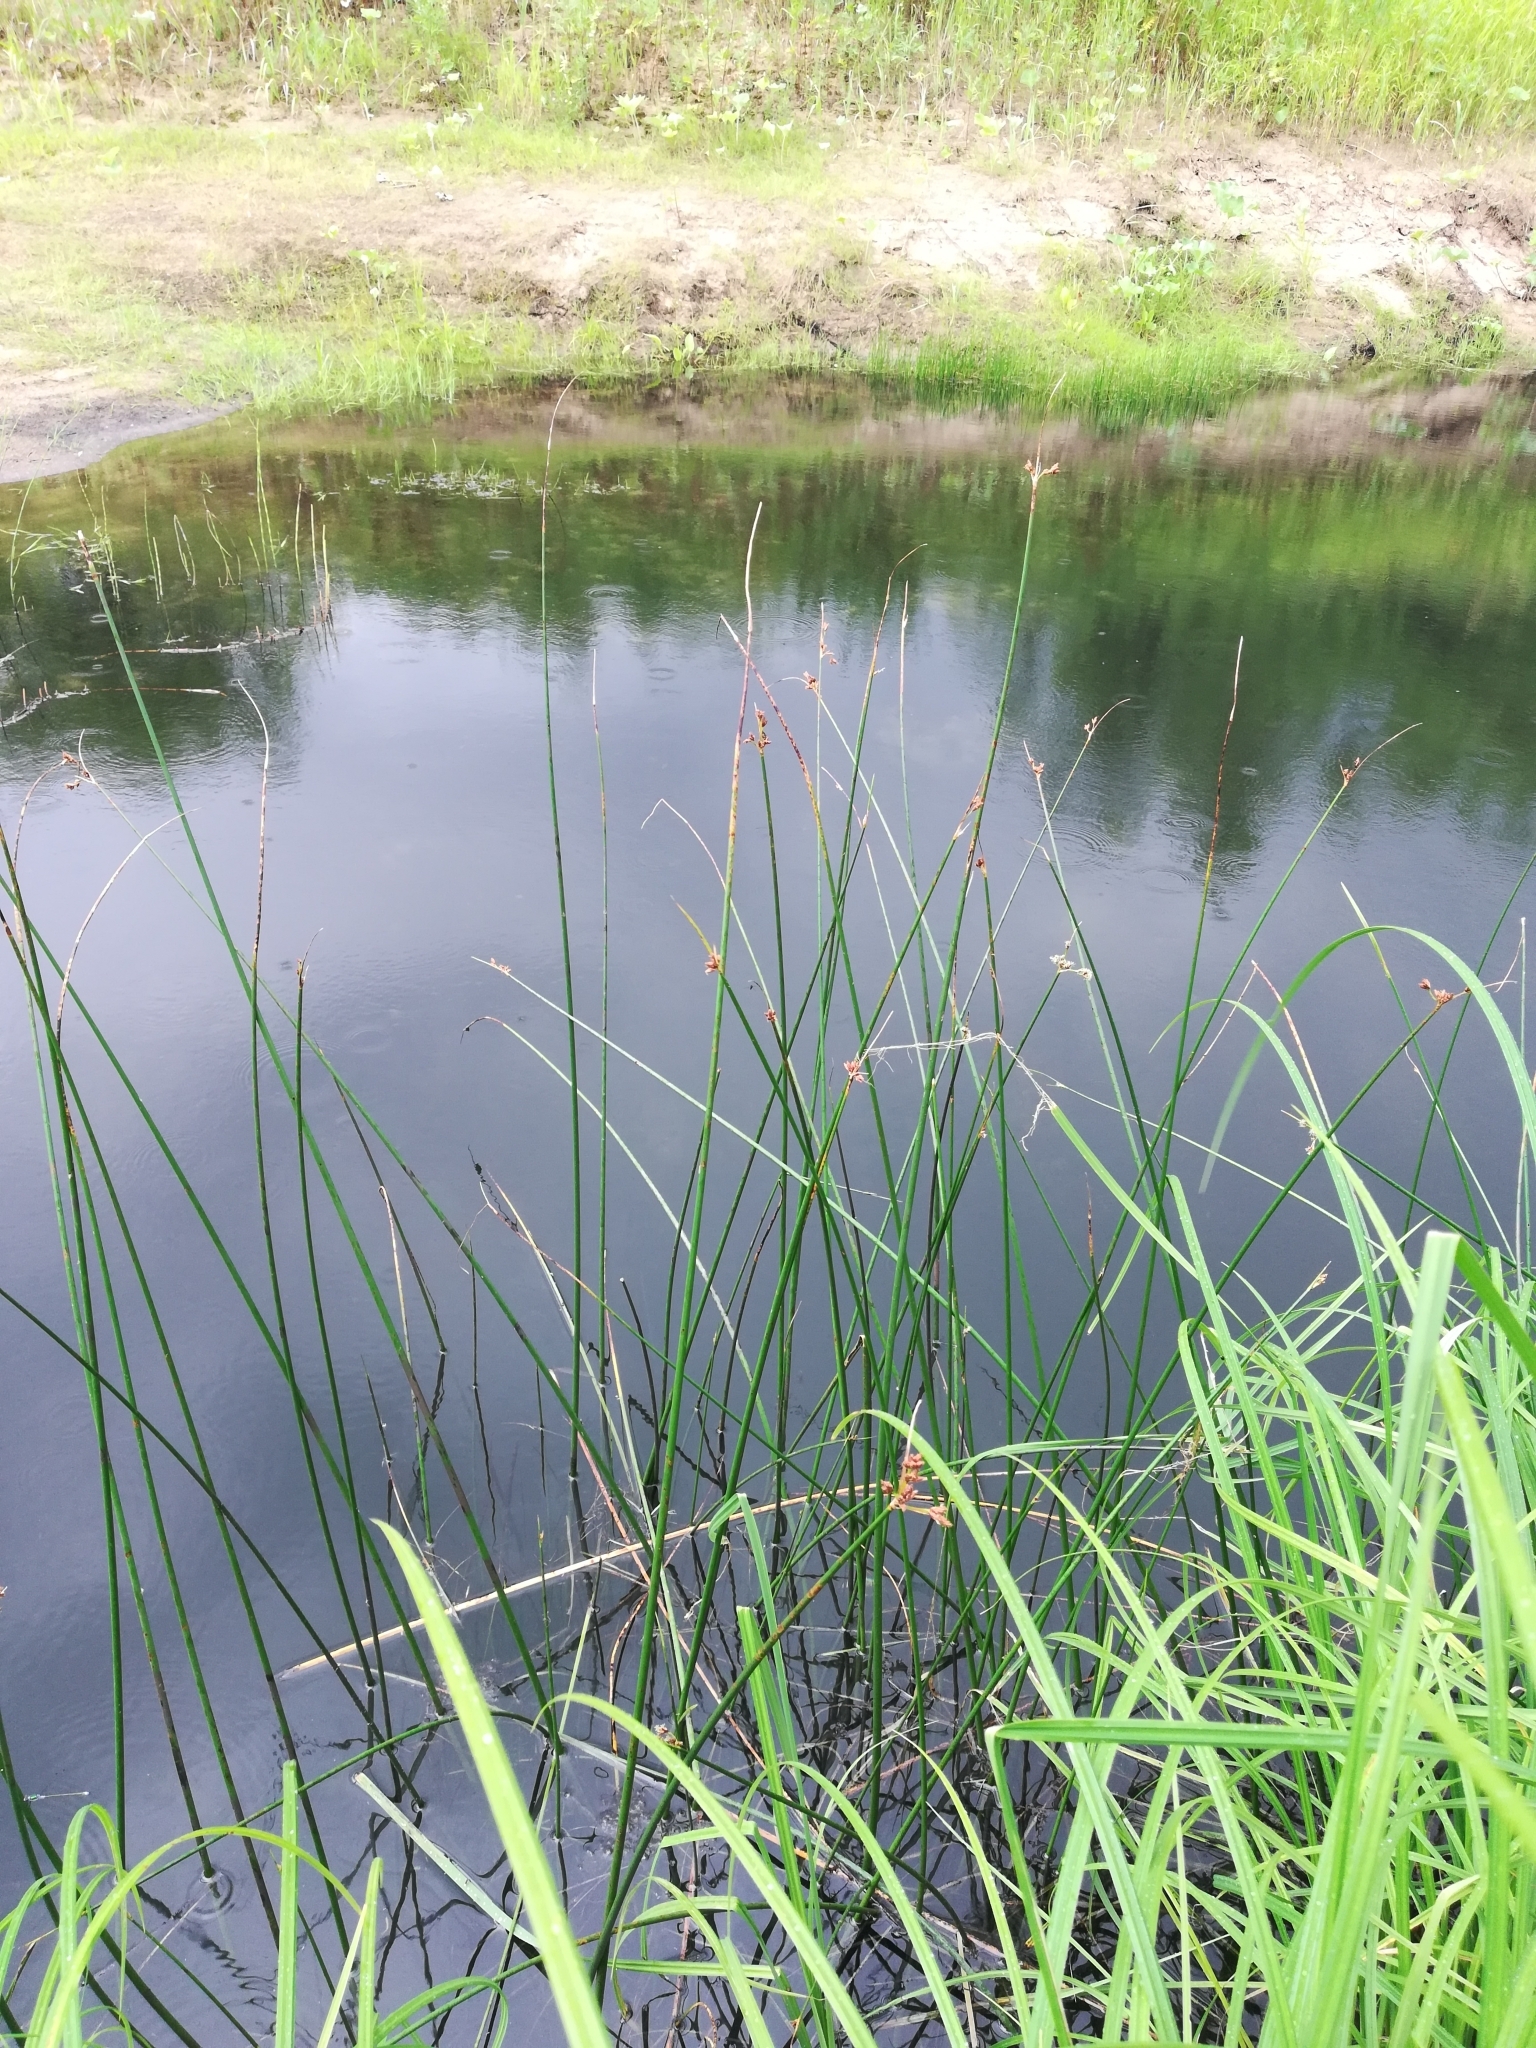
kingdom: Plantae
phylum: Tracheophyta
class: Liliopsida
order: Poales
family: Cyperaceae
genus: Schoenoplectus
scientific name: Schoenoplectus lacustris
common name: Common club-rush
